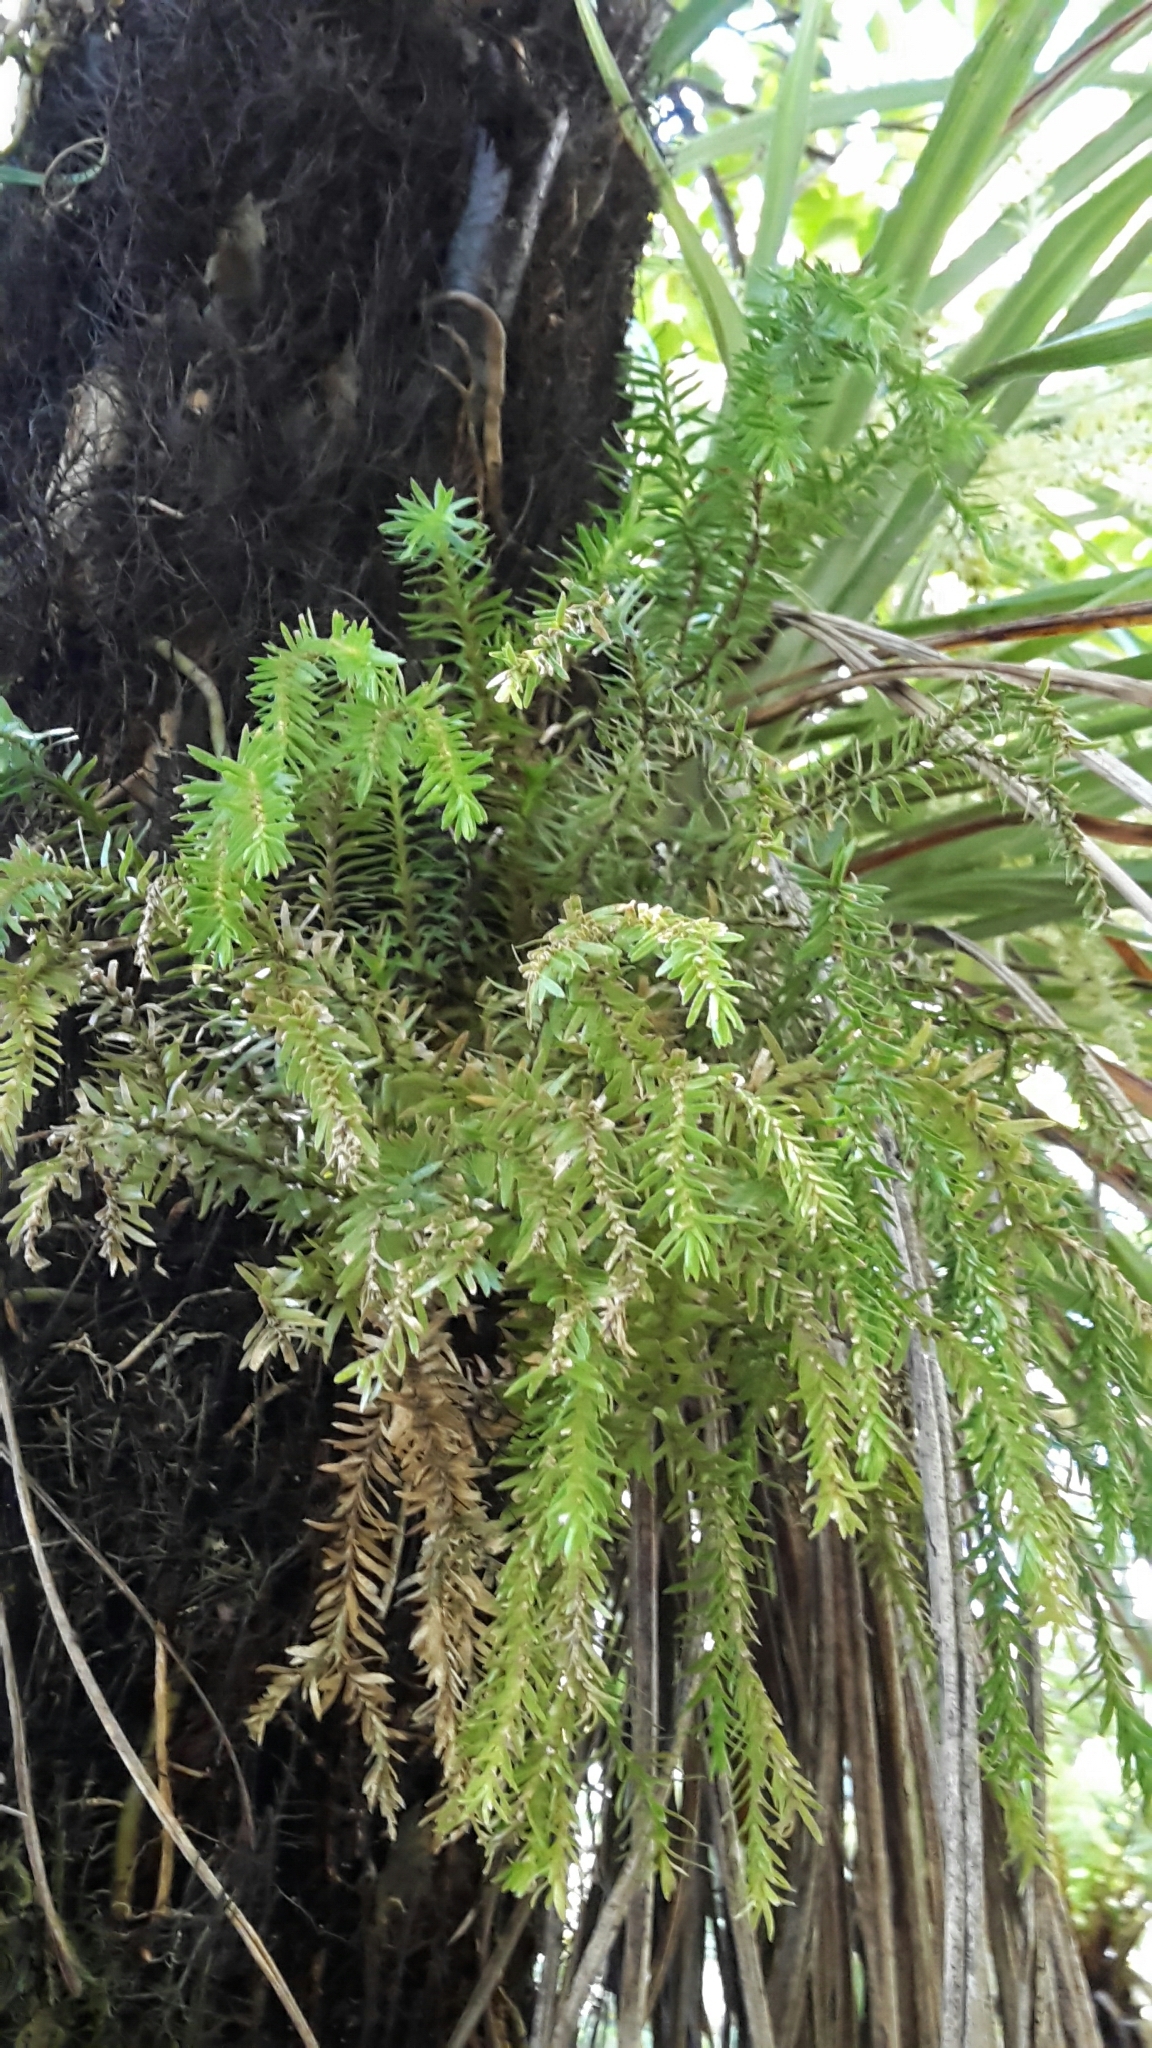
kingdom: Plantae
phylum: Tracheophyta
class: Lycopodiopsida
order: Lycopodiales
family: Lycopodiaceae
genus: Phlegmariurus
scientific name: Phlegmariurus varius
